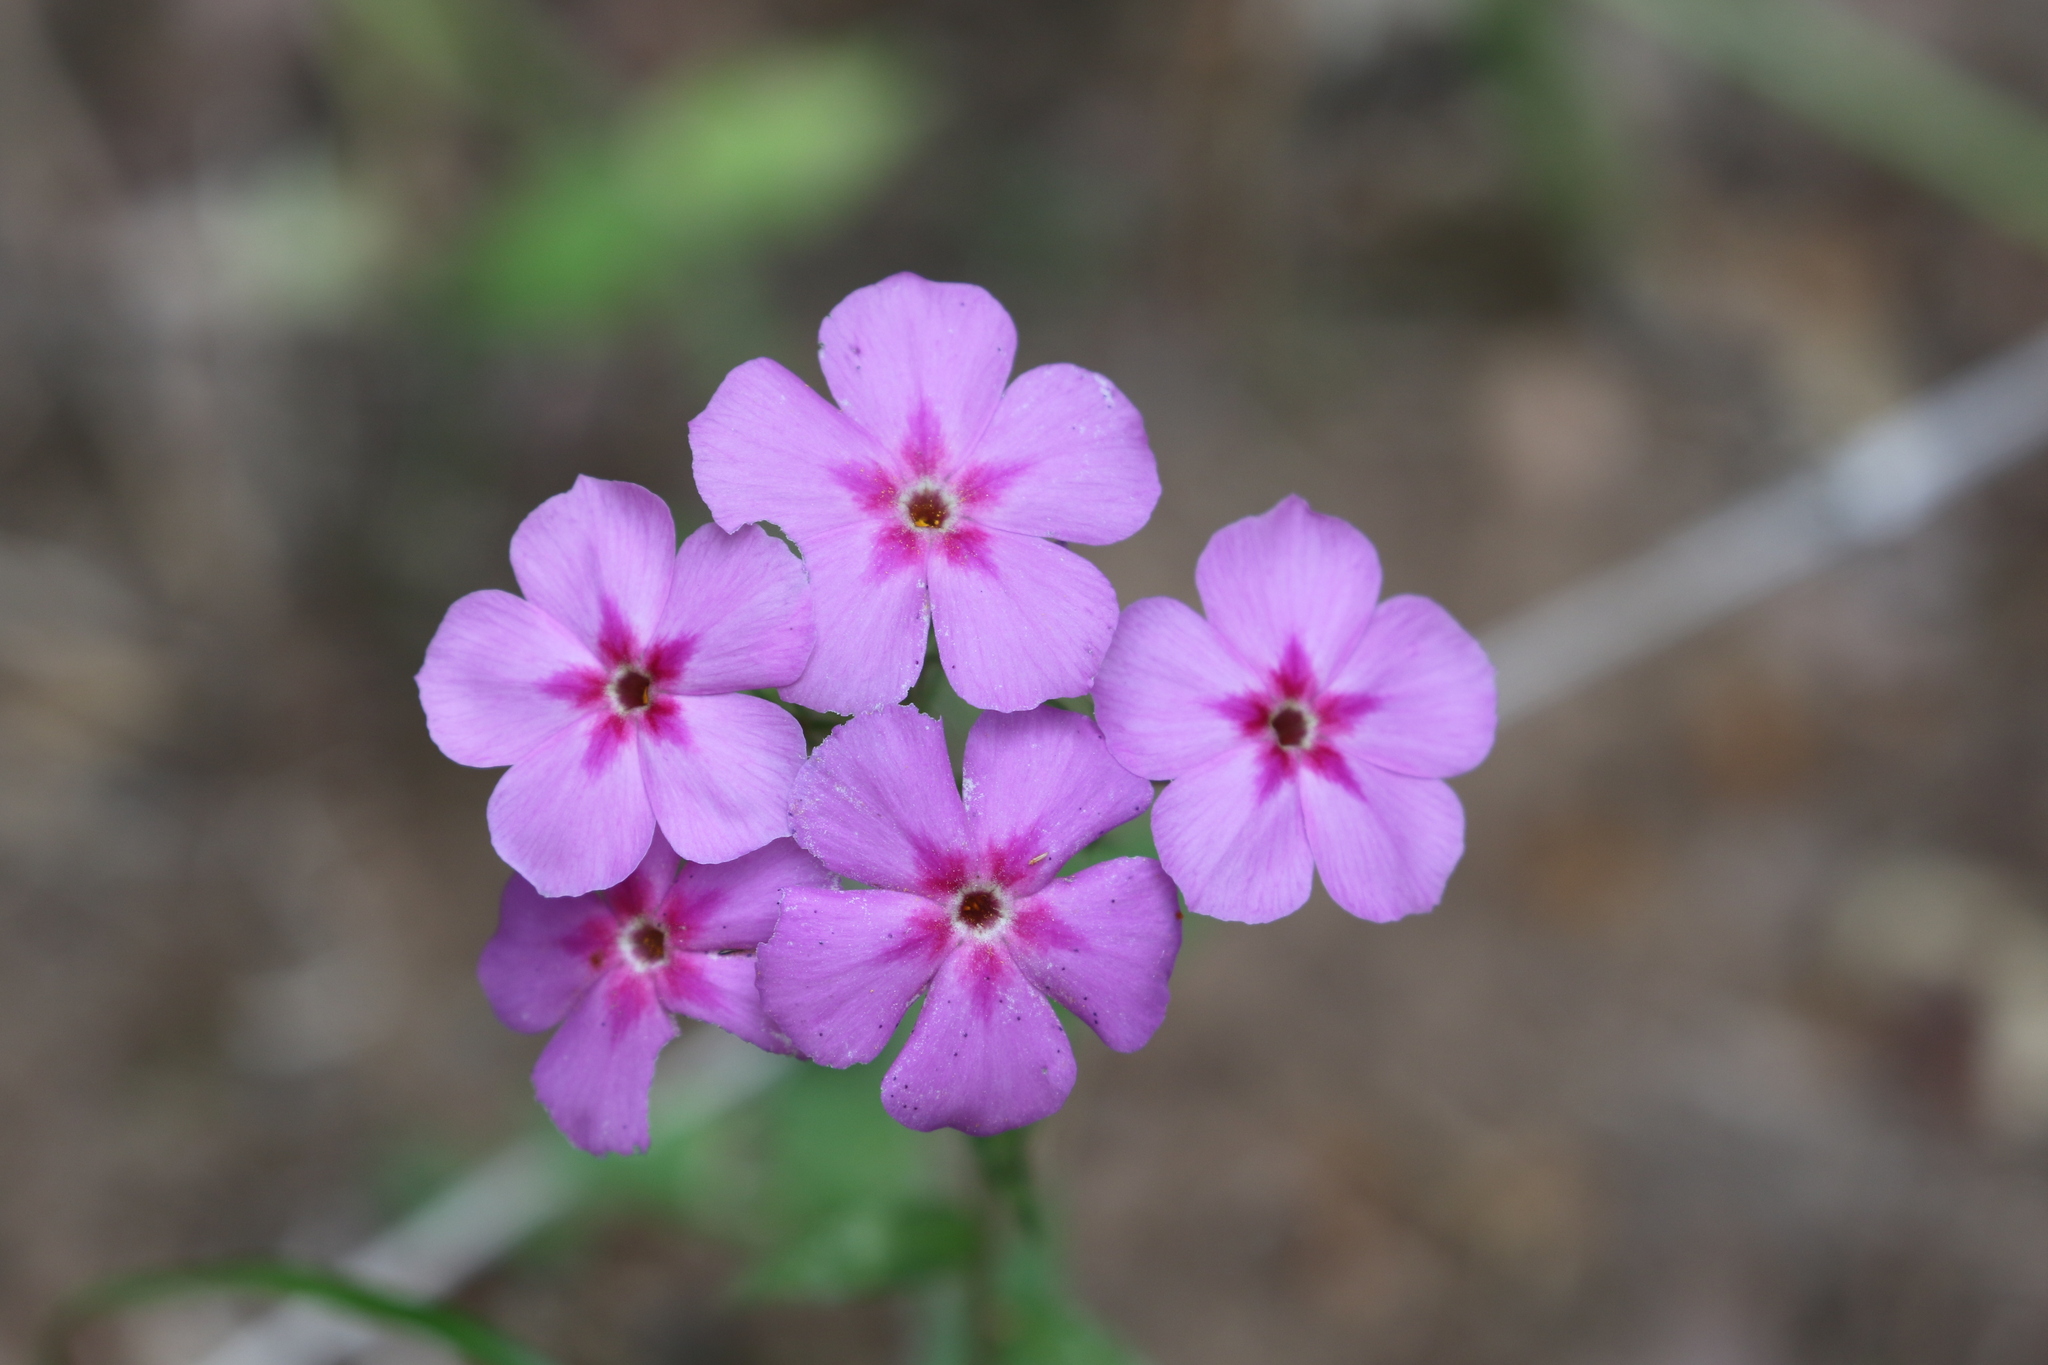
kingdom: Plantae
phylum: Tracheophyta
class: Magnoliopsida
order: Ericales
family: Polemoniaceae
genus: Phlox
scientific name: Phlox drummondii
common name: Drummond's phlox
